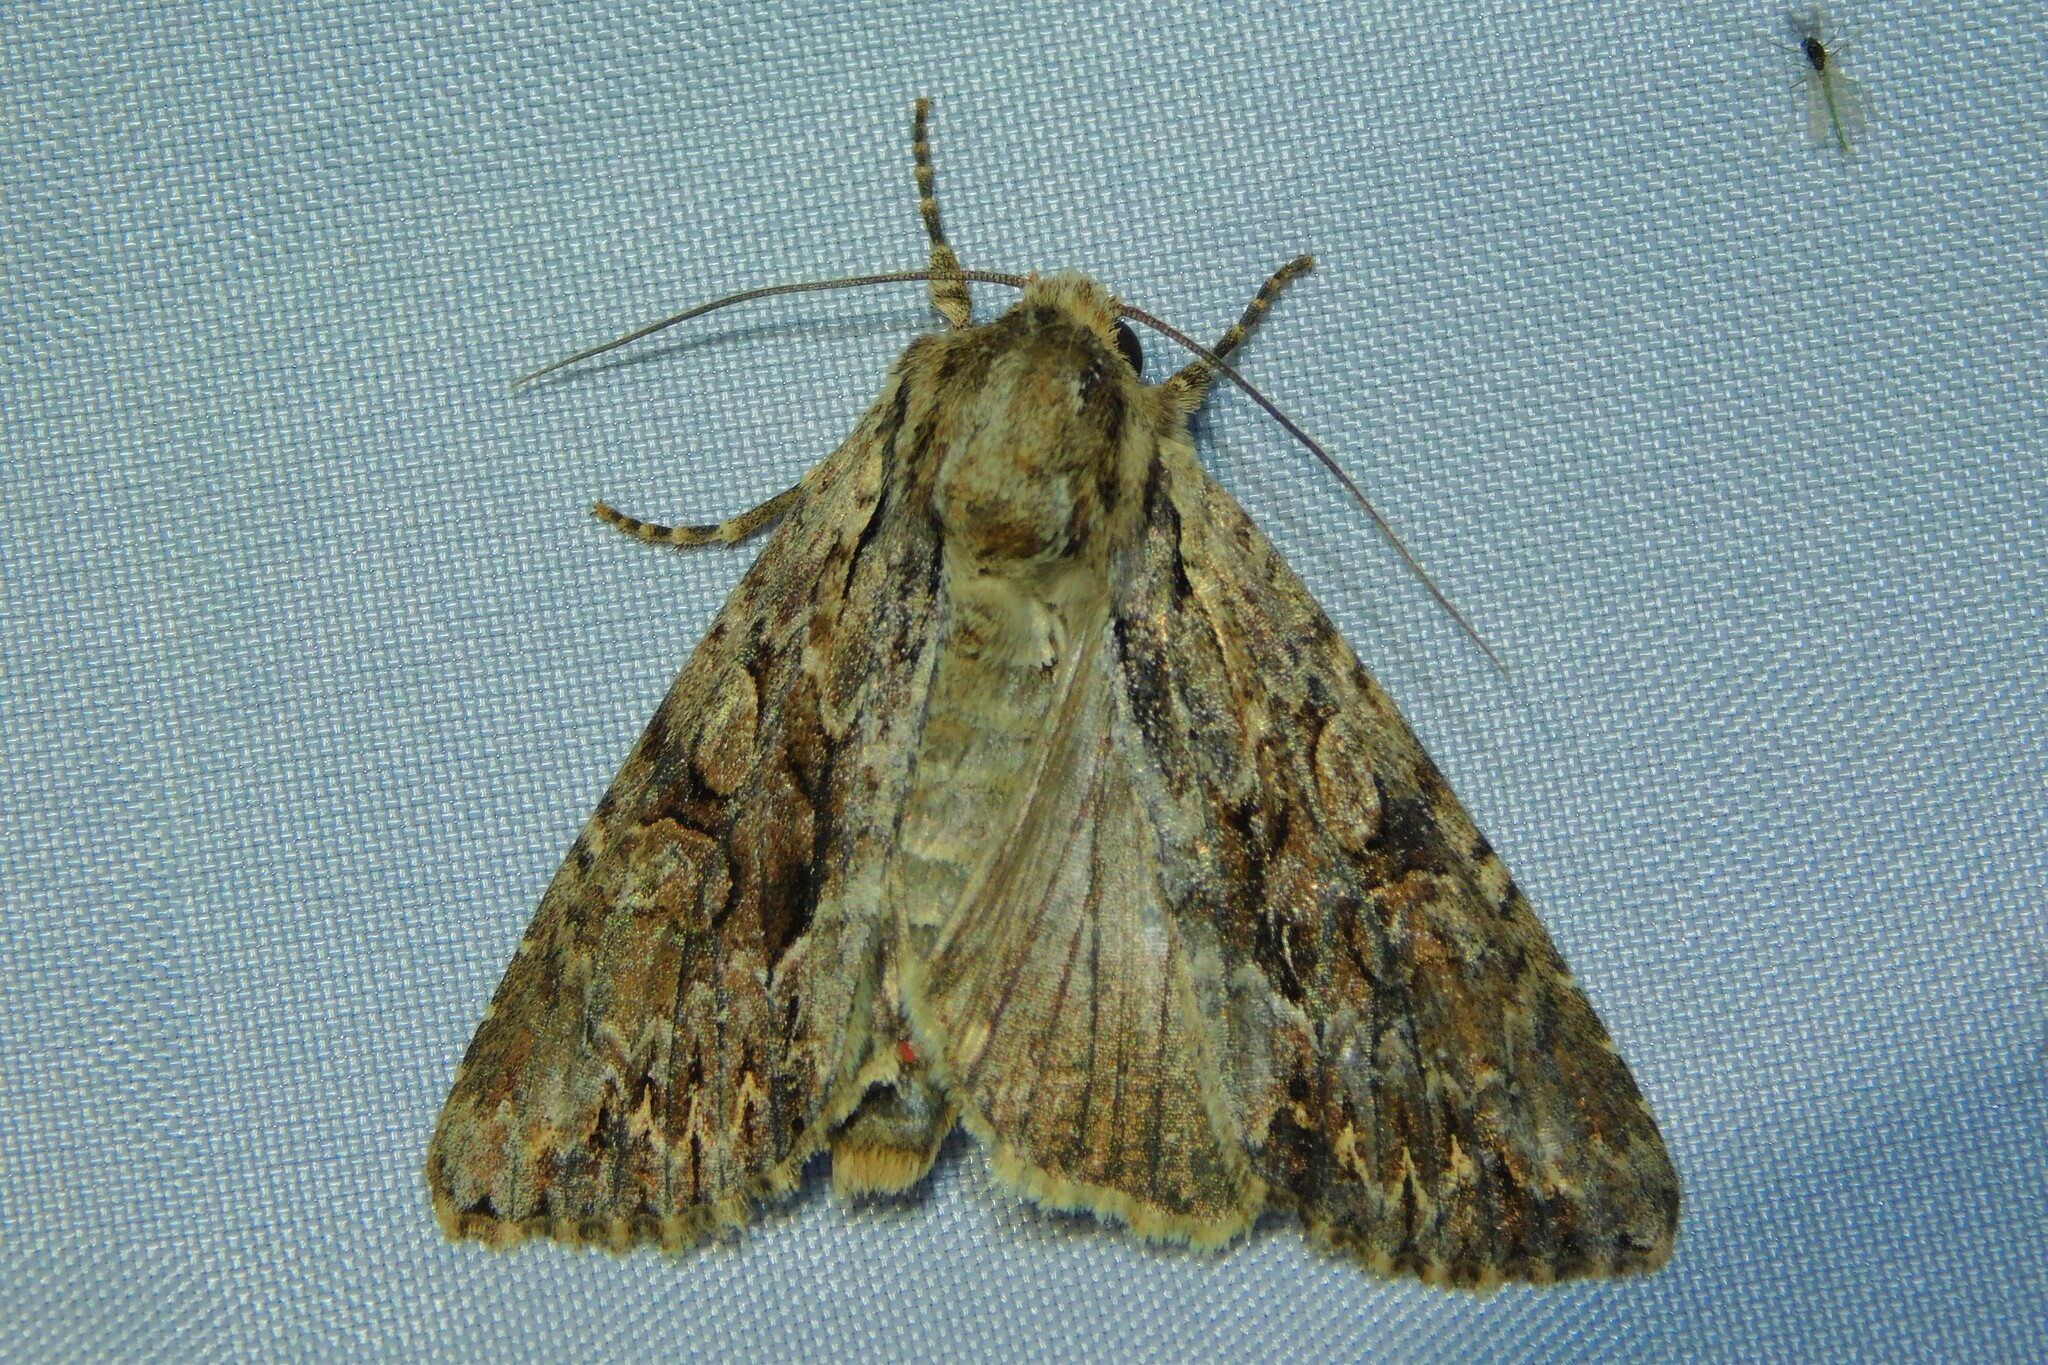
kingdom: Animalia
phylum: Arthropoda
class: Insecta
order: Lepidoptera
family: Noctuidae
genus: Apamea
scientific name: Apamea monoglypha
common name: Dark arches
